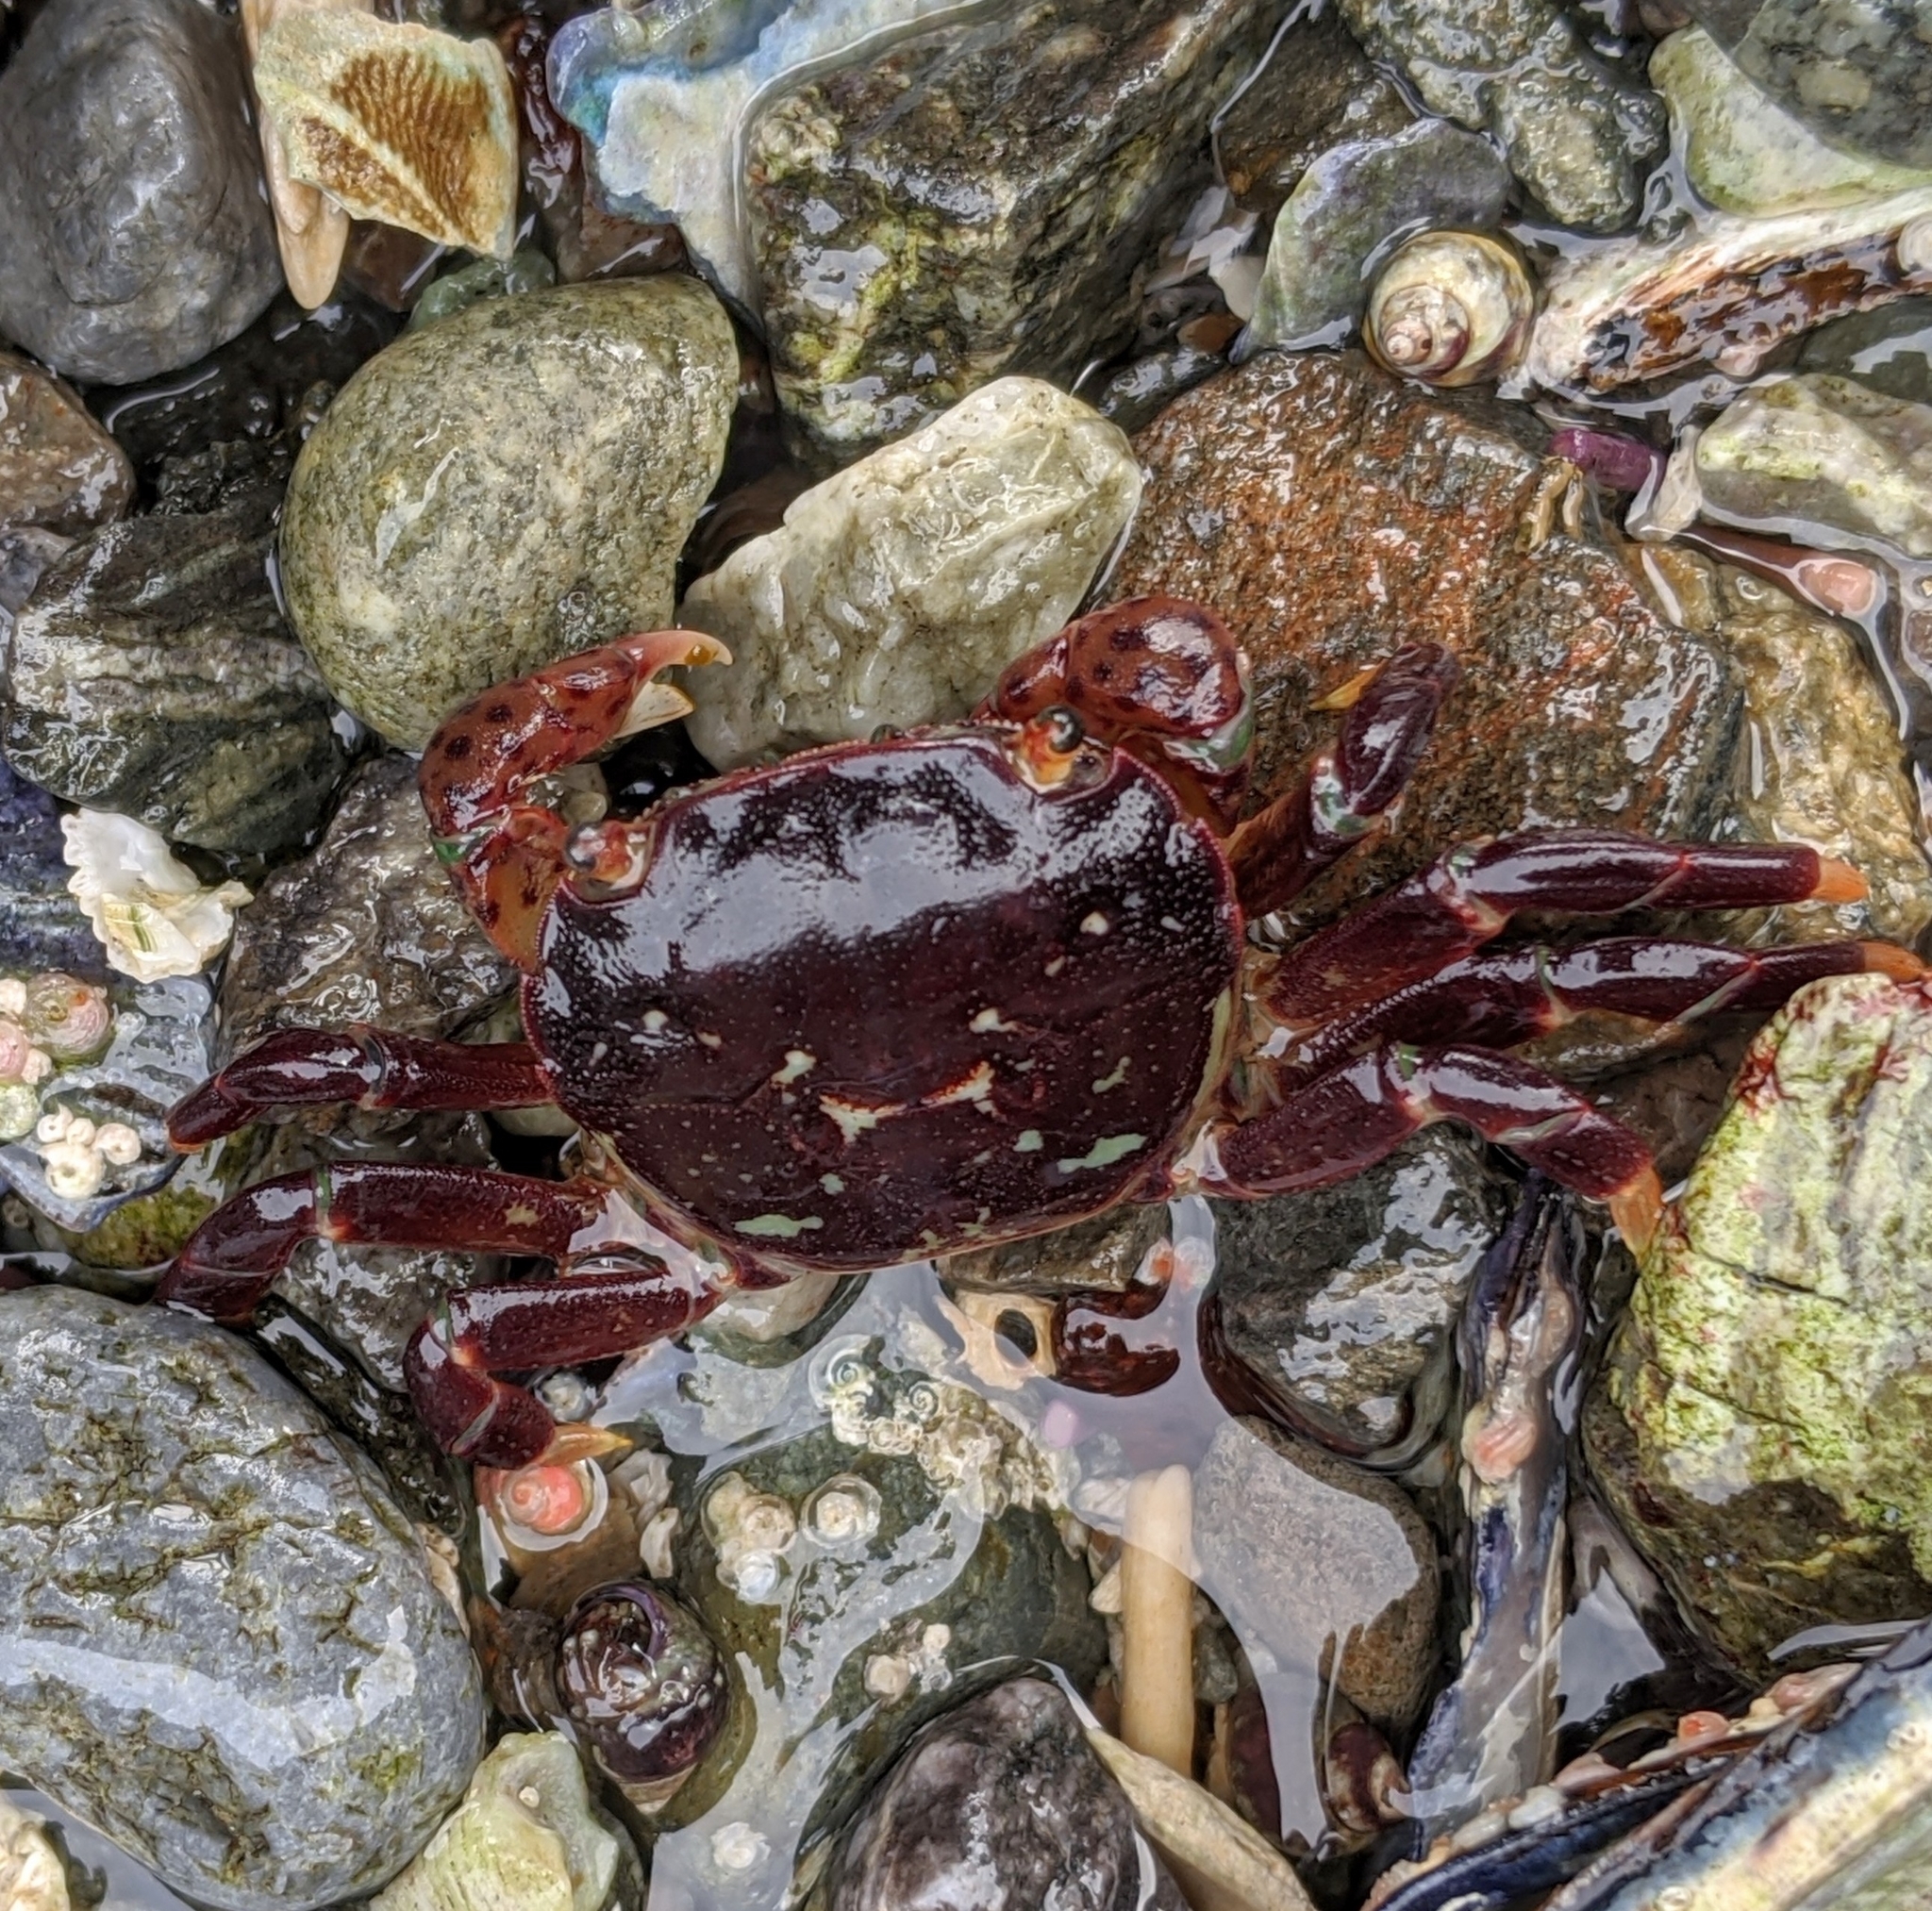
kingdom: Animalia
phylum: Arthropoda
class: Malacostraca
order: Decapoda
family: Varunidae
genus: Hemigrapsus
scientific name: Hemigrapsus nudus
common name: Purple shore crab
